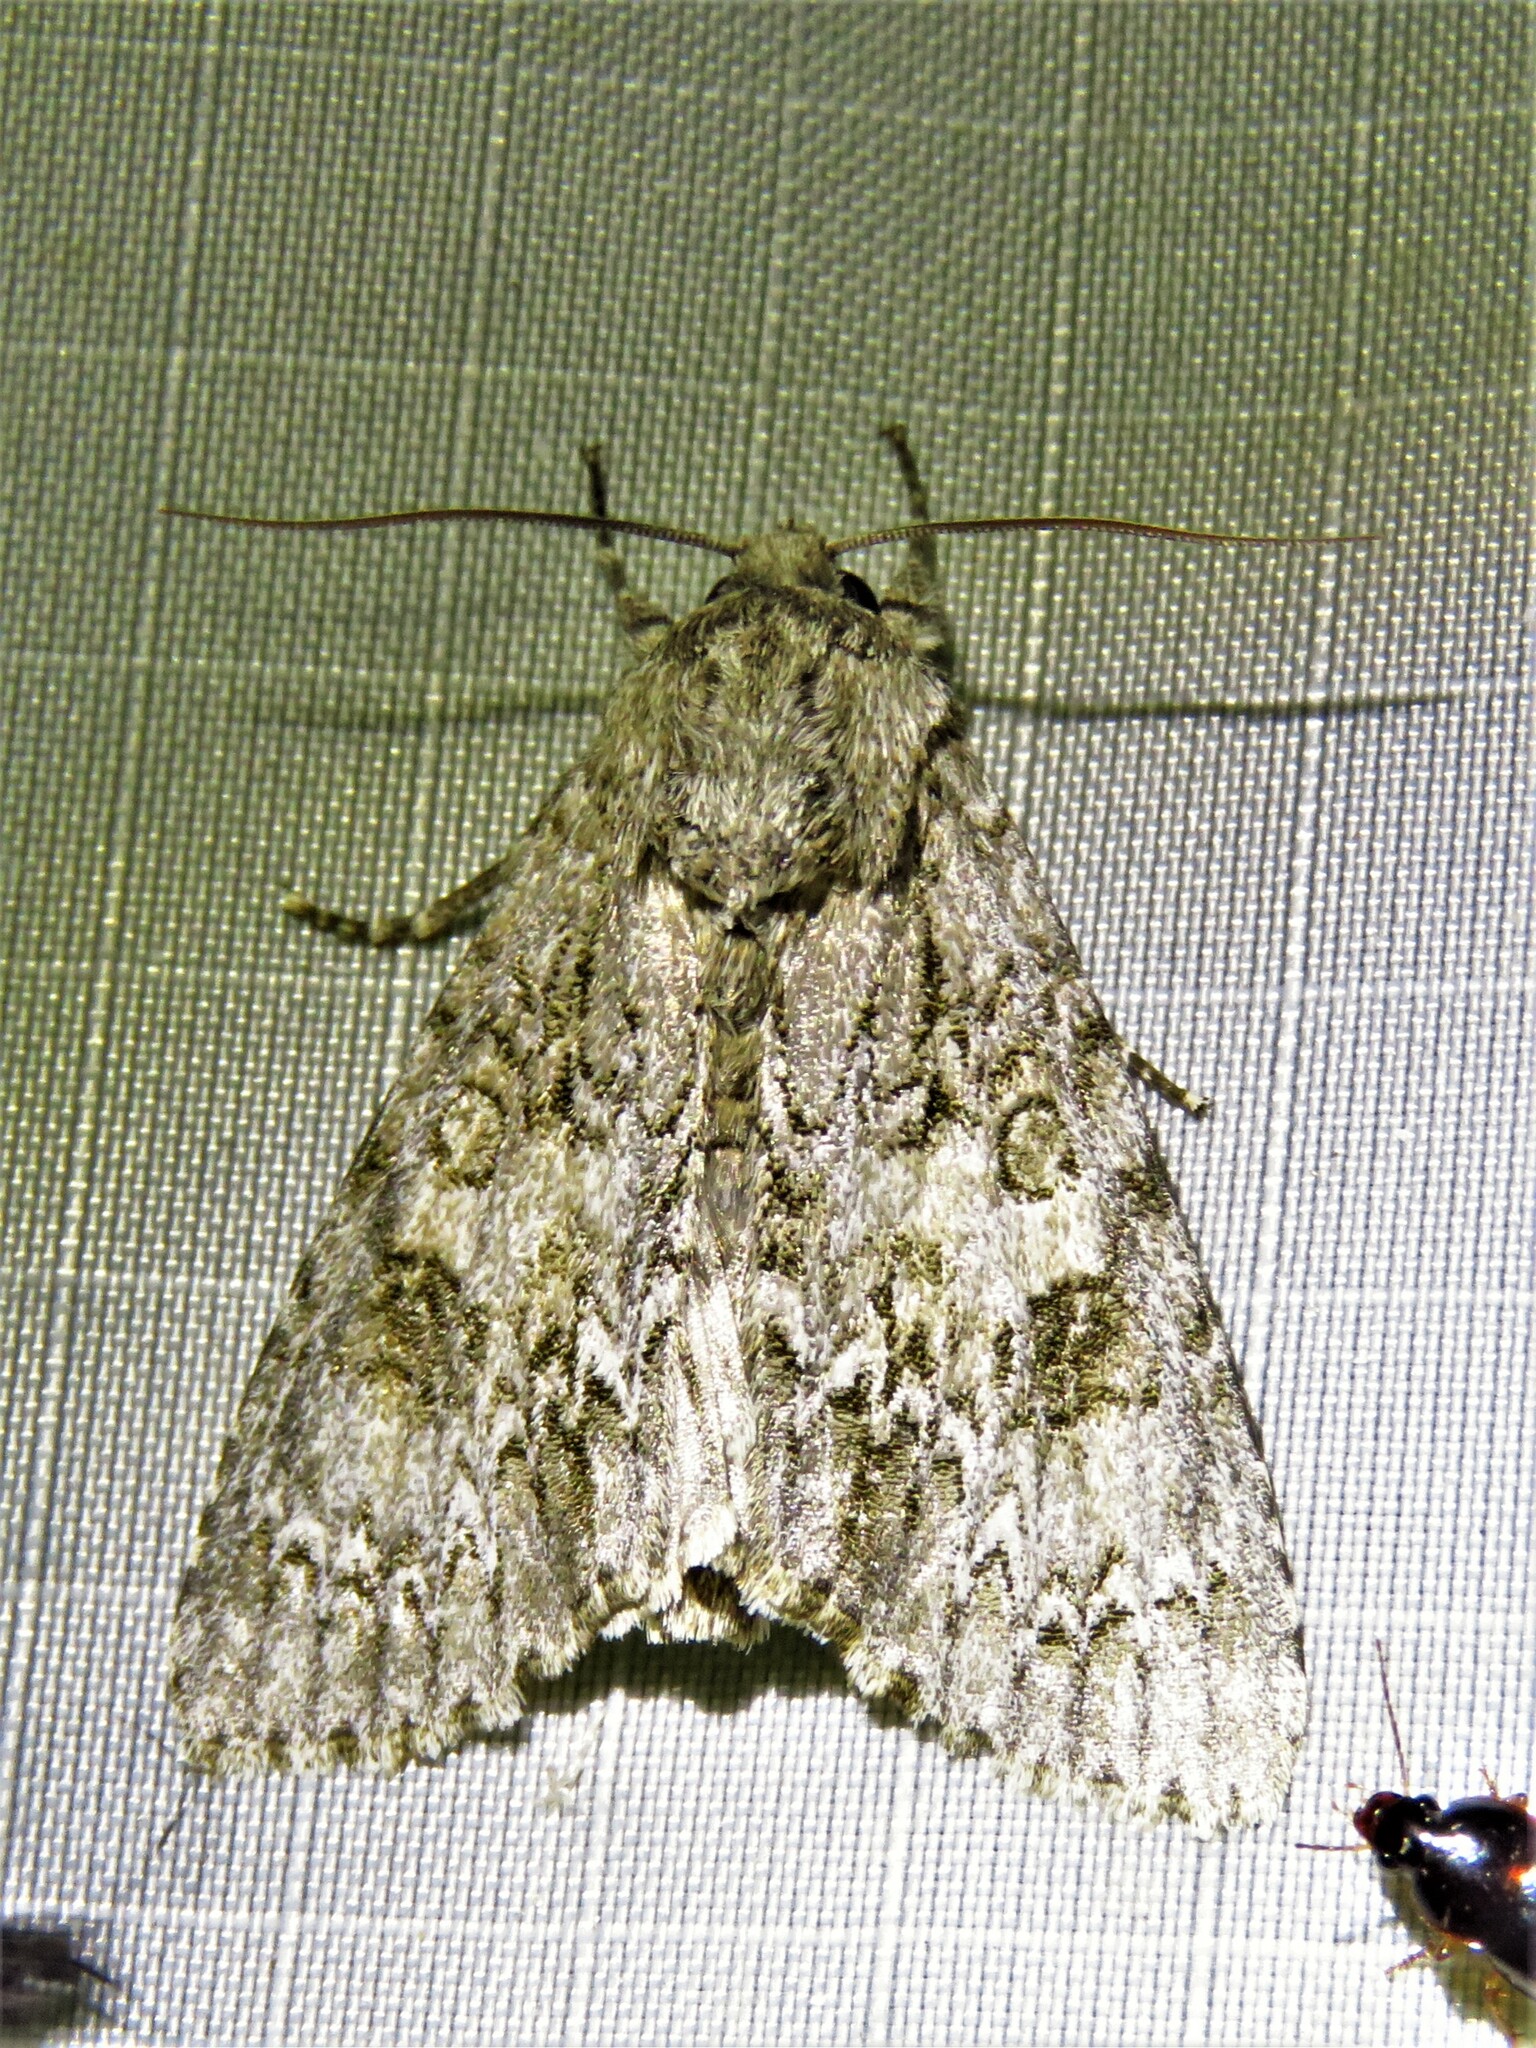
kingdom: Animalia
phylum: Arthropoda
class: Insecta
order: Lepidoptera
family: Noctuidae
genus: Acronicta
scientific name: Acronicta rubricoma
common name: Hackberry dagger
